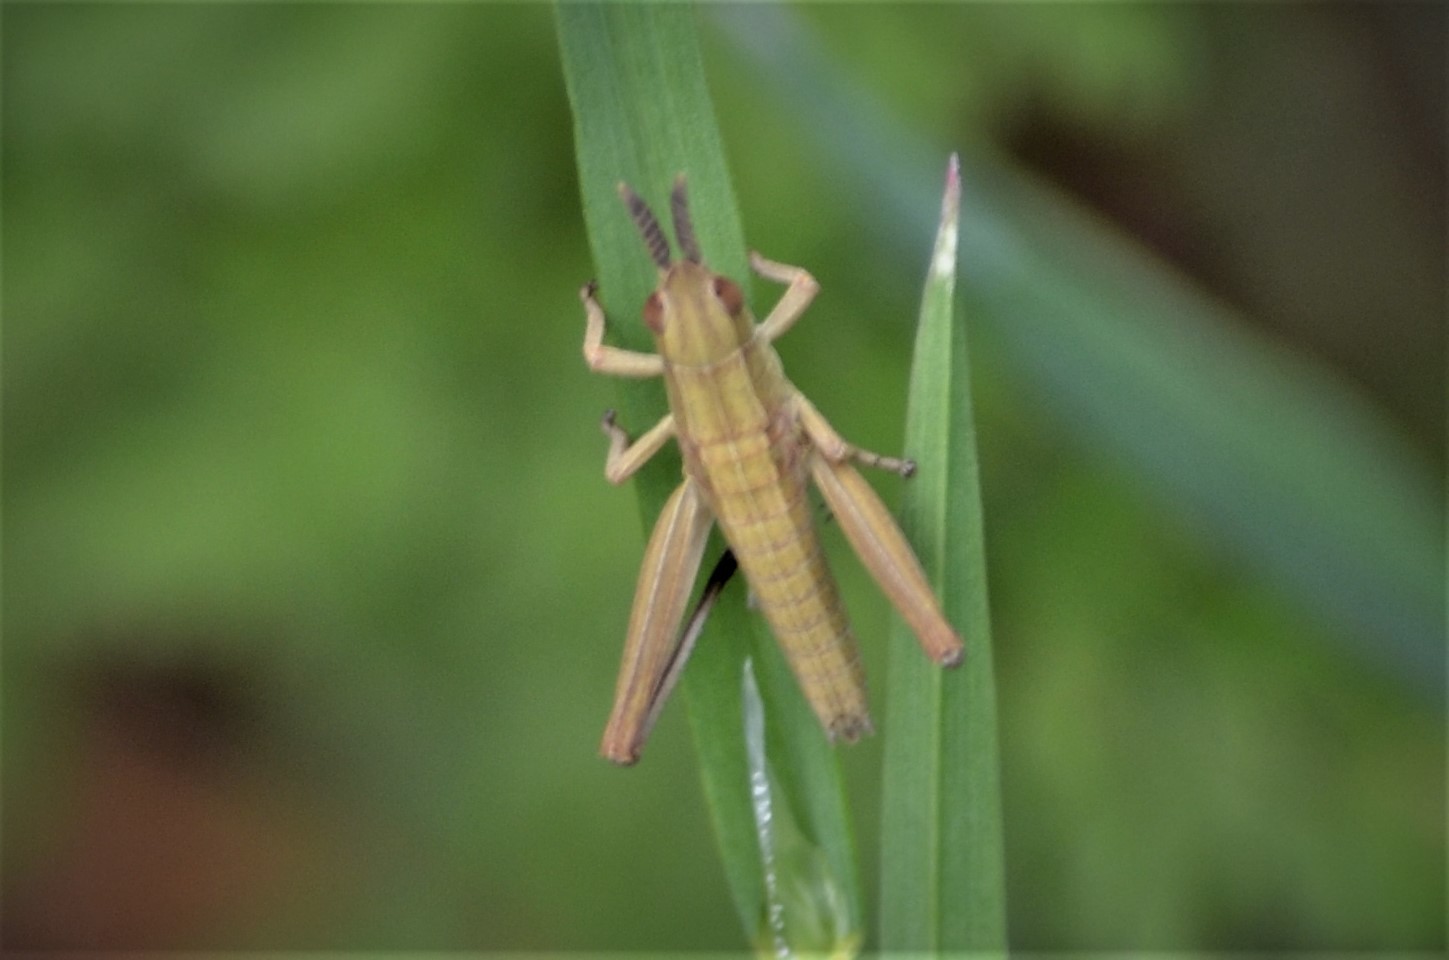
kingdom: Animalia
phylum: Arthropoda
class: Insecta
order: Orthoptera
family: Acrididae
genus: Euthystira
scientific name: Euthystira brachyptera
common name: Small gold grasshopper
